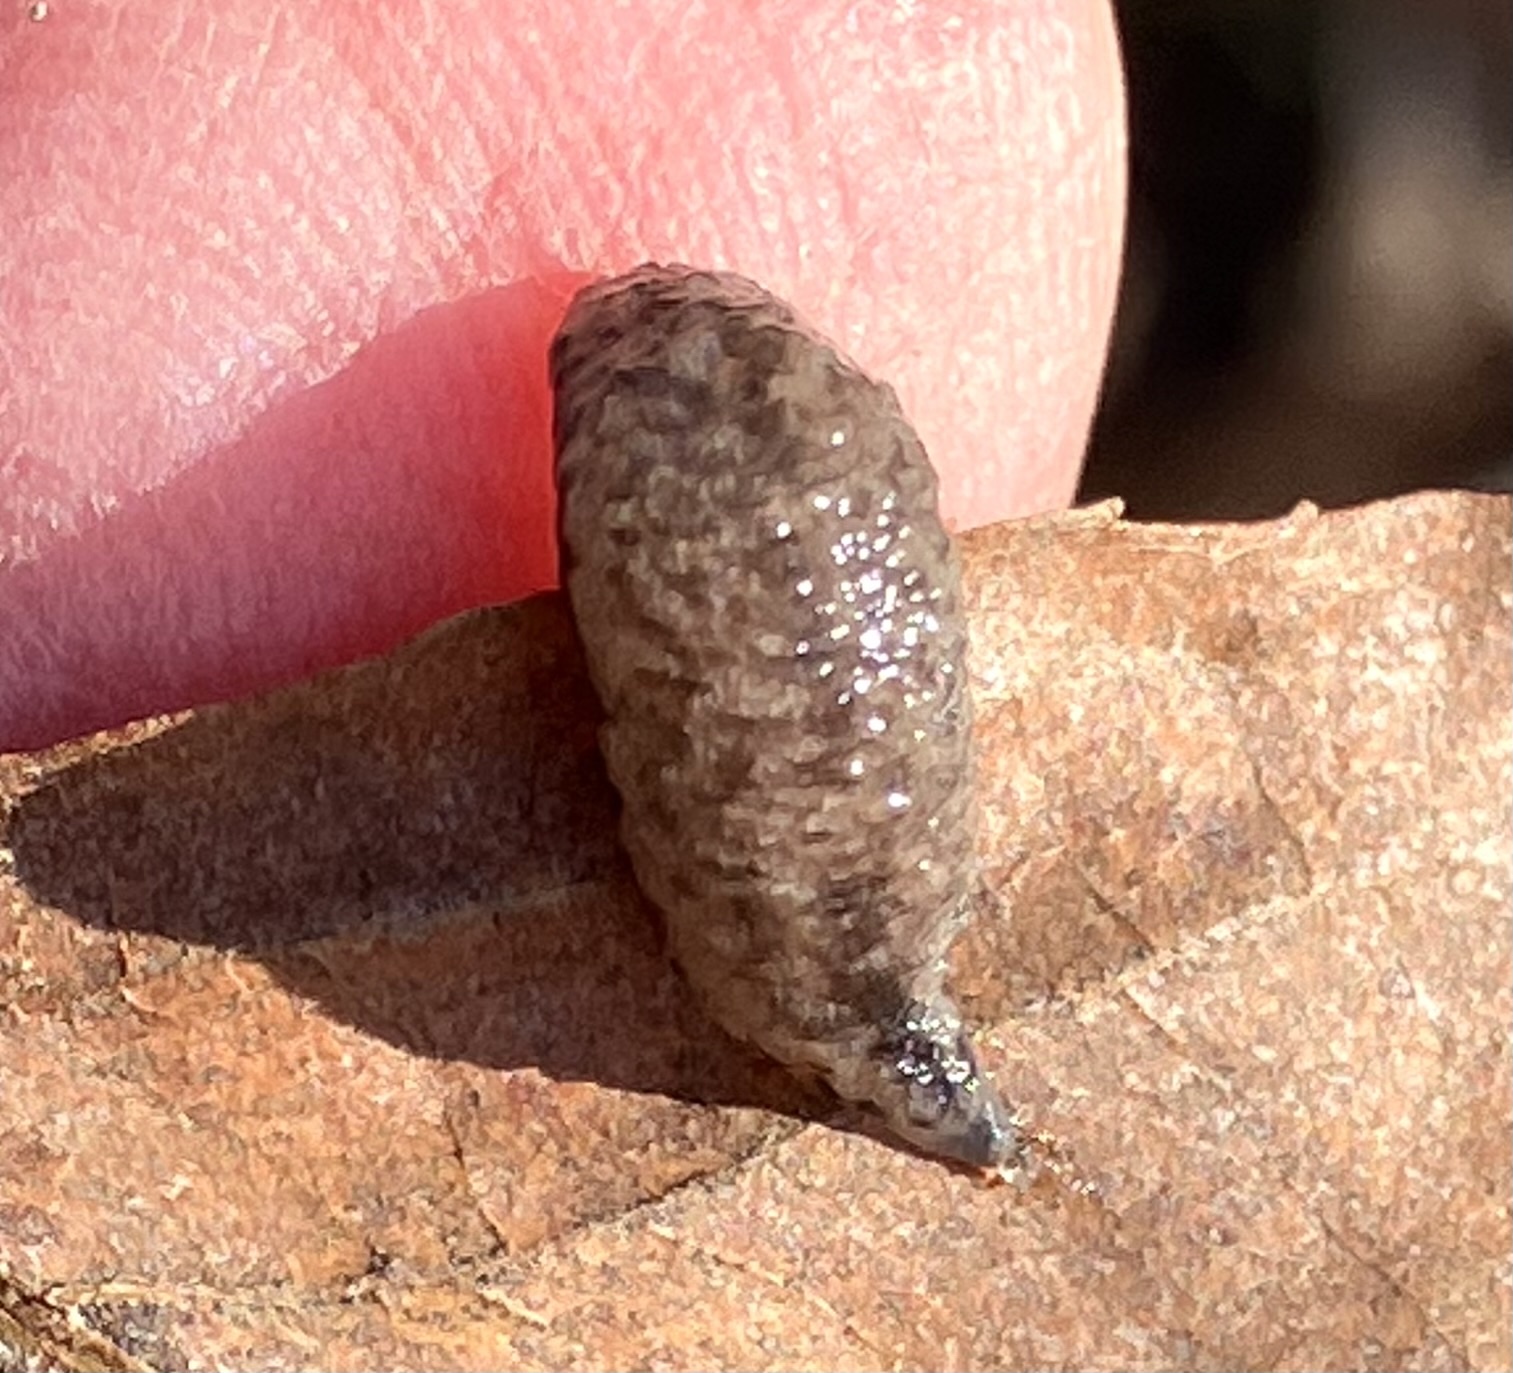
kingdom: Animalia
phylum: Mollusca
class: Gastropoda
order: Stylommatophora
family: Philomycidae
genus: Pallifera
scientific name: Pallifera fosteri
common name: Foster mantleslug
